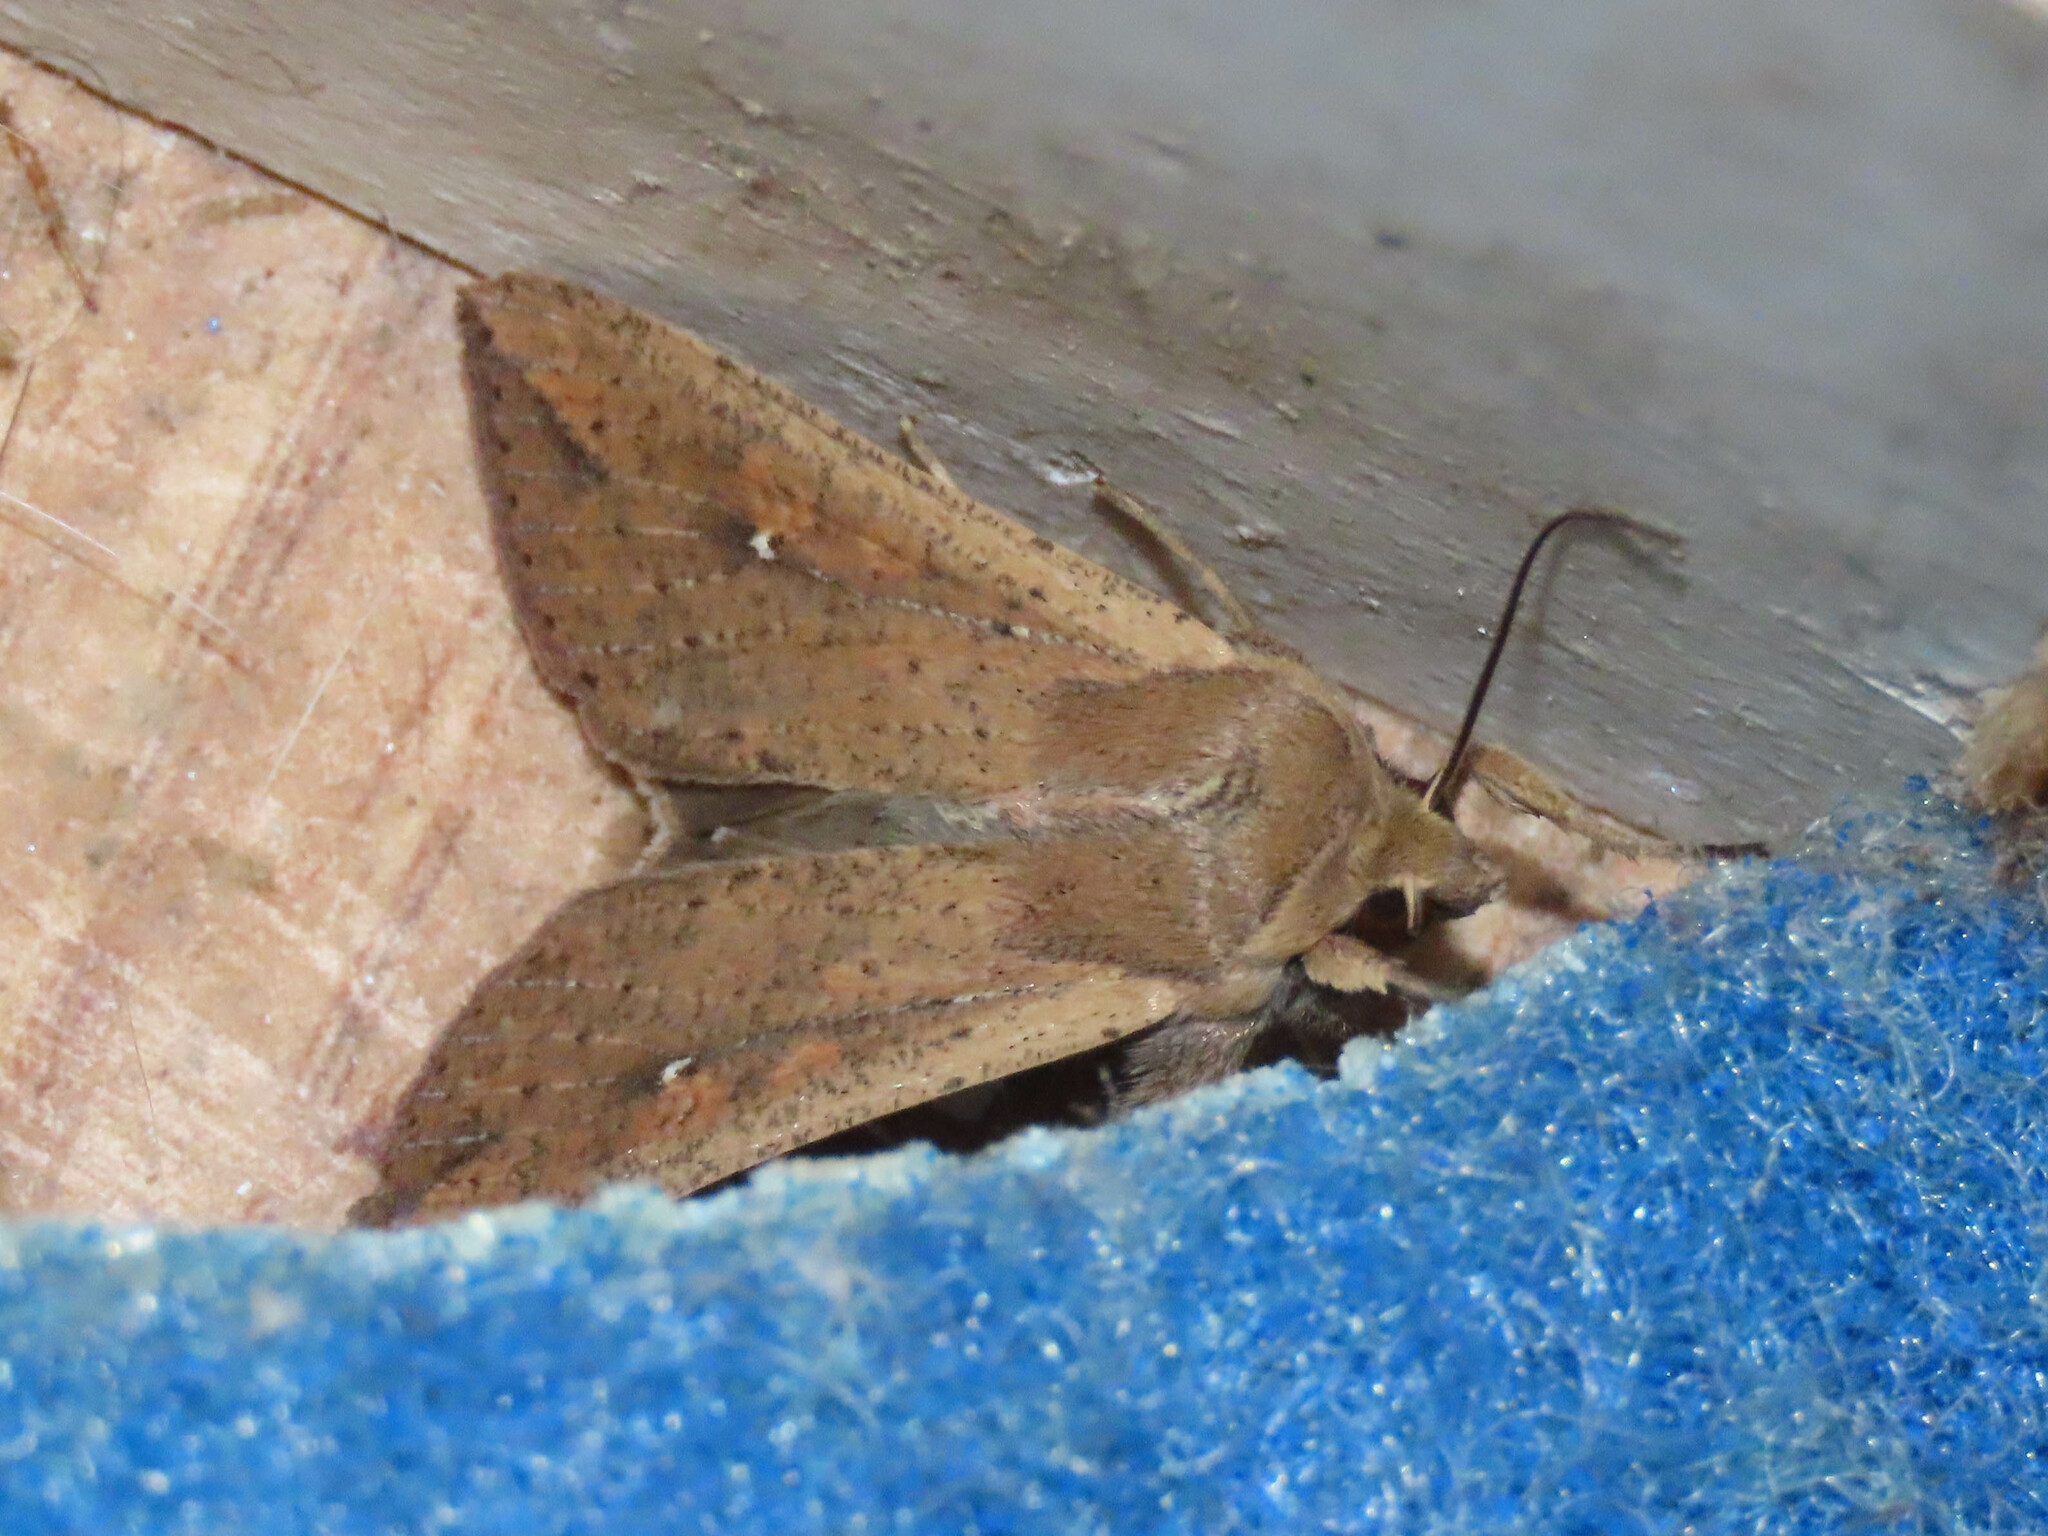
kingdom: Animalia
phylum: Arthropoda
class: Insecta
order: Lepidoptera
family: Noctuidae
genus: Mythimna
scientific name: Mythimna unipuncta
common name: White-speck
